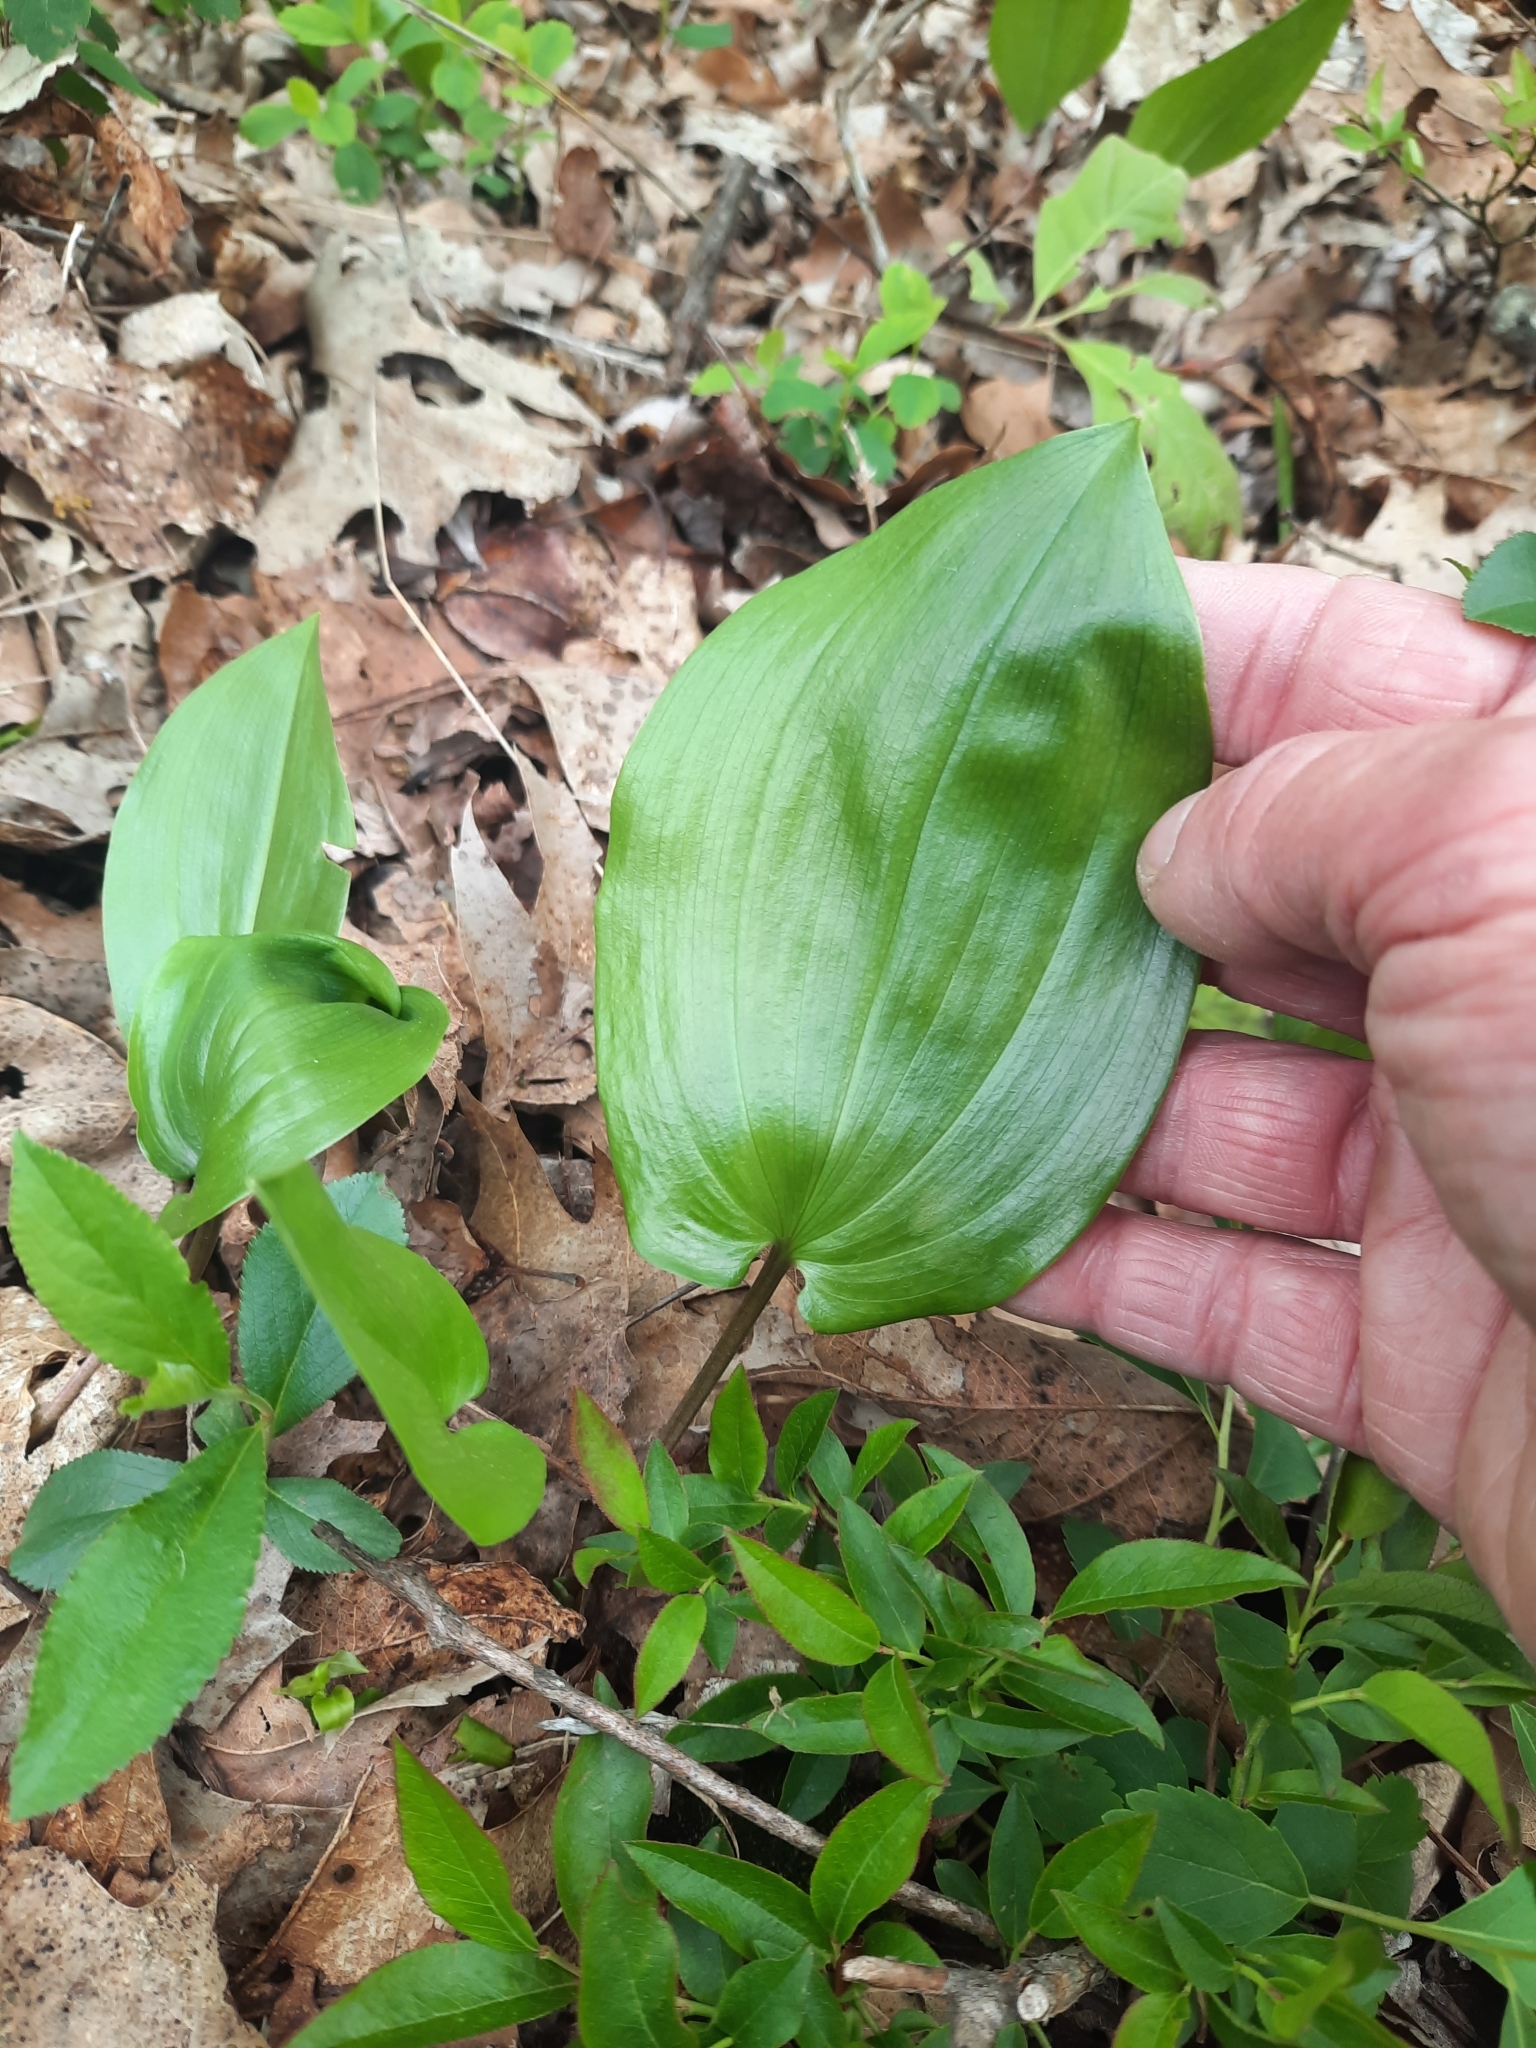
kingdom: Plantae
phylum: Tracheophyta
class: Liliopsida
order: Asparagales
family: Asparagaceae
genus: Maianthemum
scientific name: Maianthemum canadense
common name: False lily-of-the-valley
